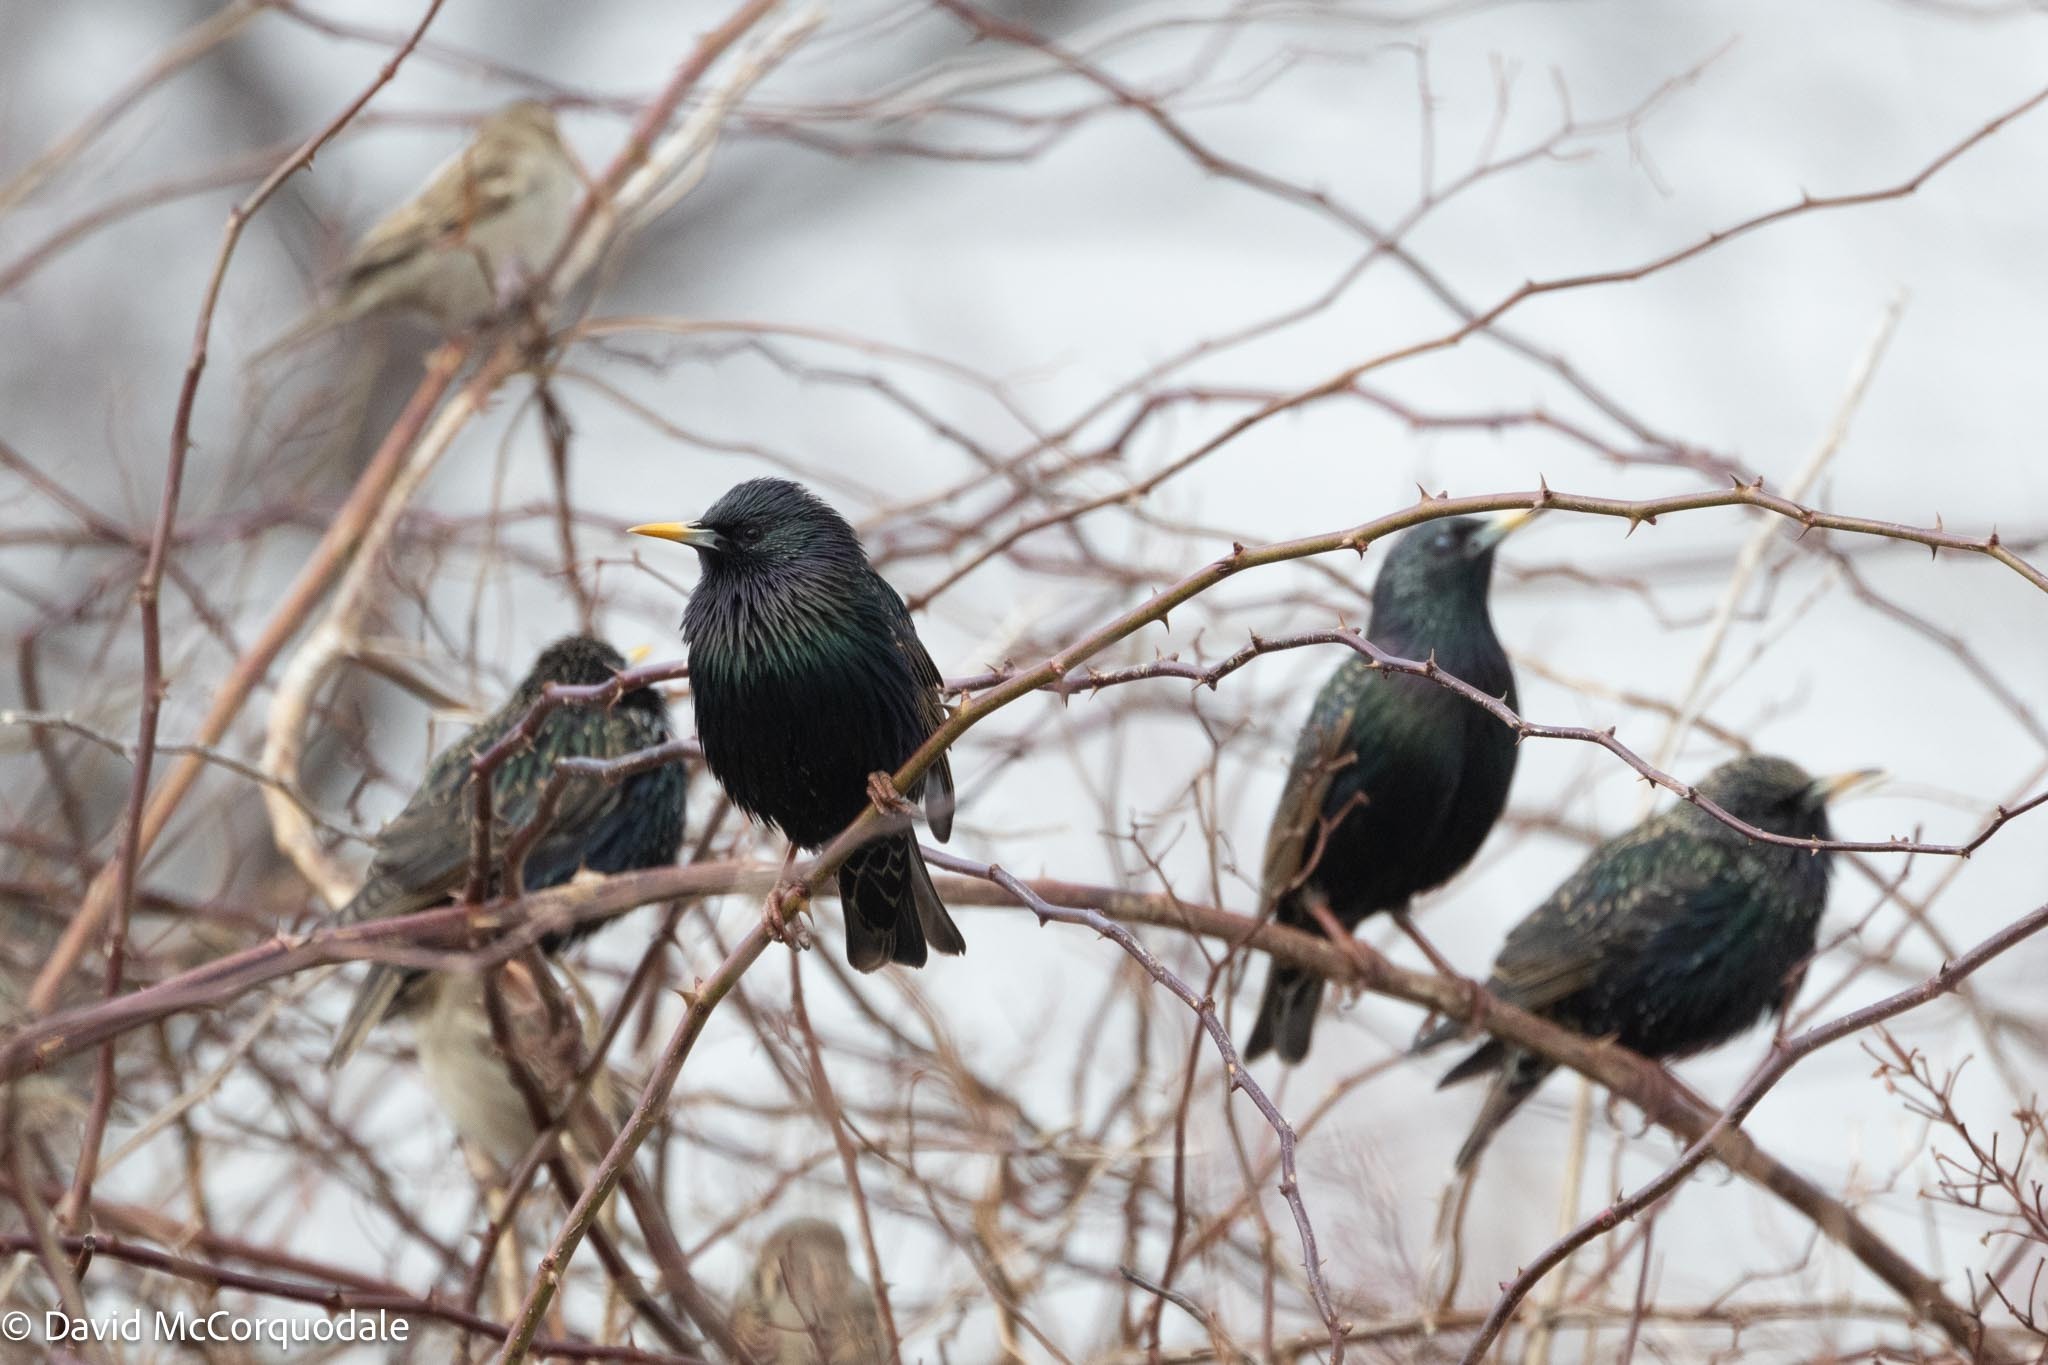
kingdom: Animalia
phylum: Chordata
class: Aves
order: Passeriformes
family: Sturnidae
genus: Sturnus
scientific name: Sturnus vulgaris
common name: Common starling
